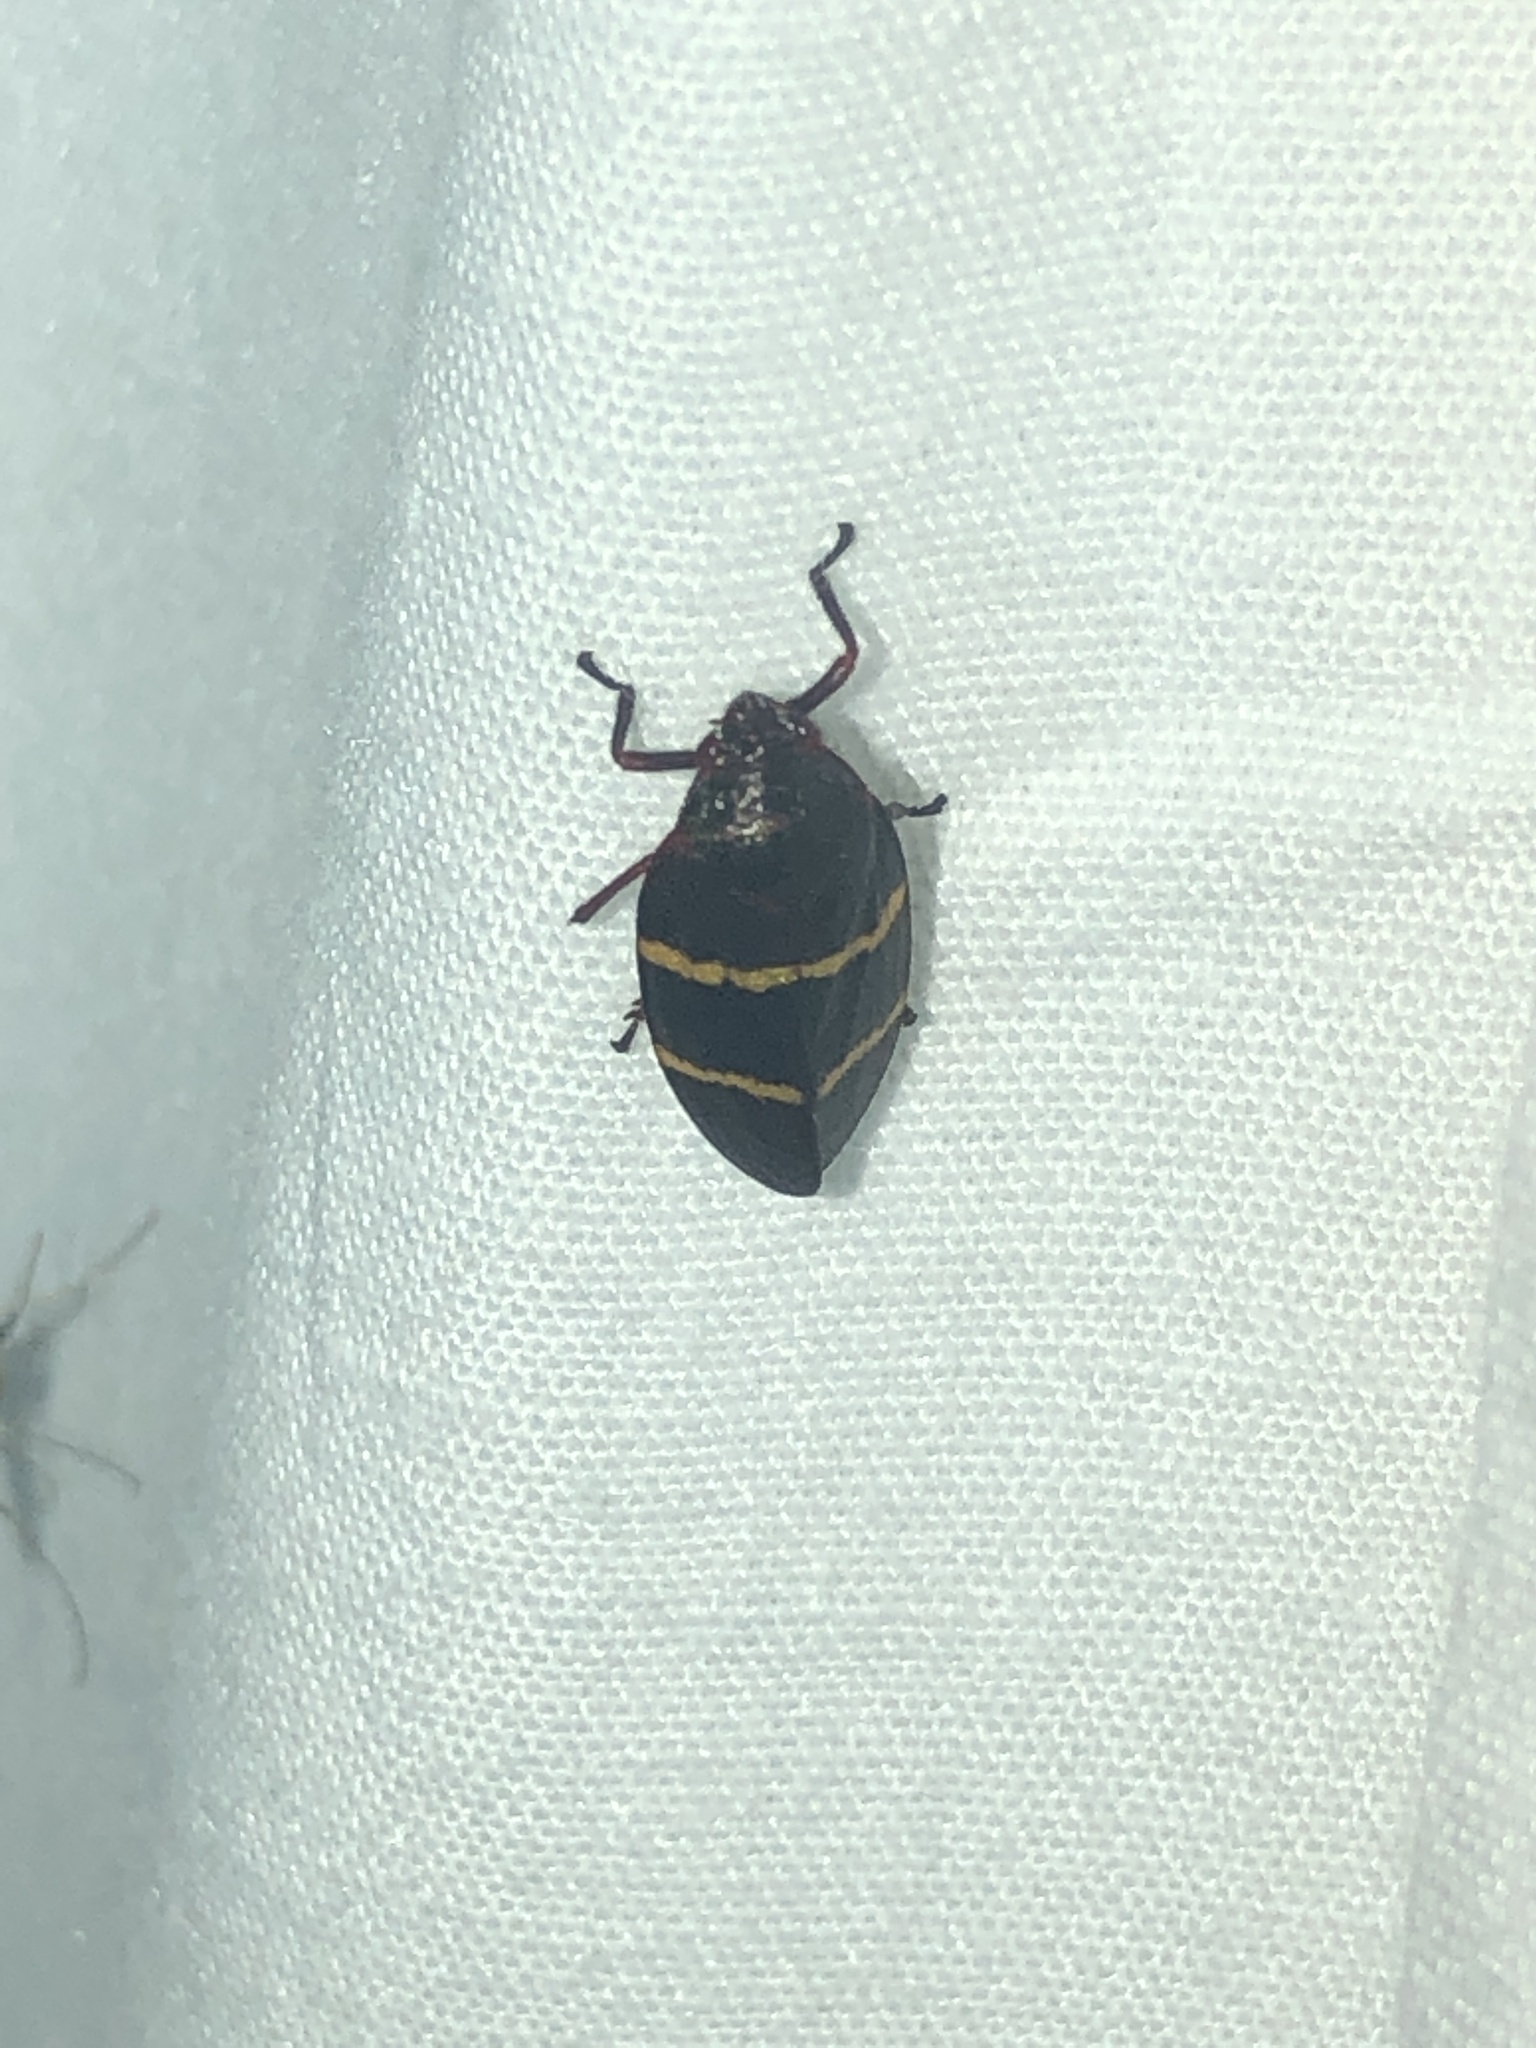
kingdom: Animalia
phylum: Arthropoda
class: Insecta
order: Hemiptera
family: Cercopidae
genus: Prosapia
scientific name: Prosapia bicincta
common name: Twolined spittlebug
